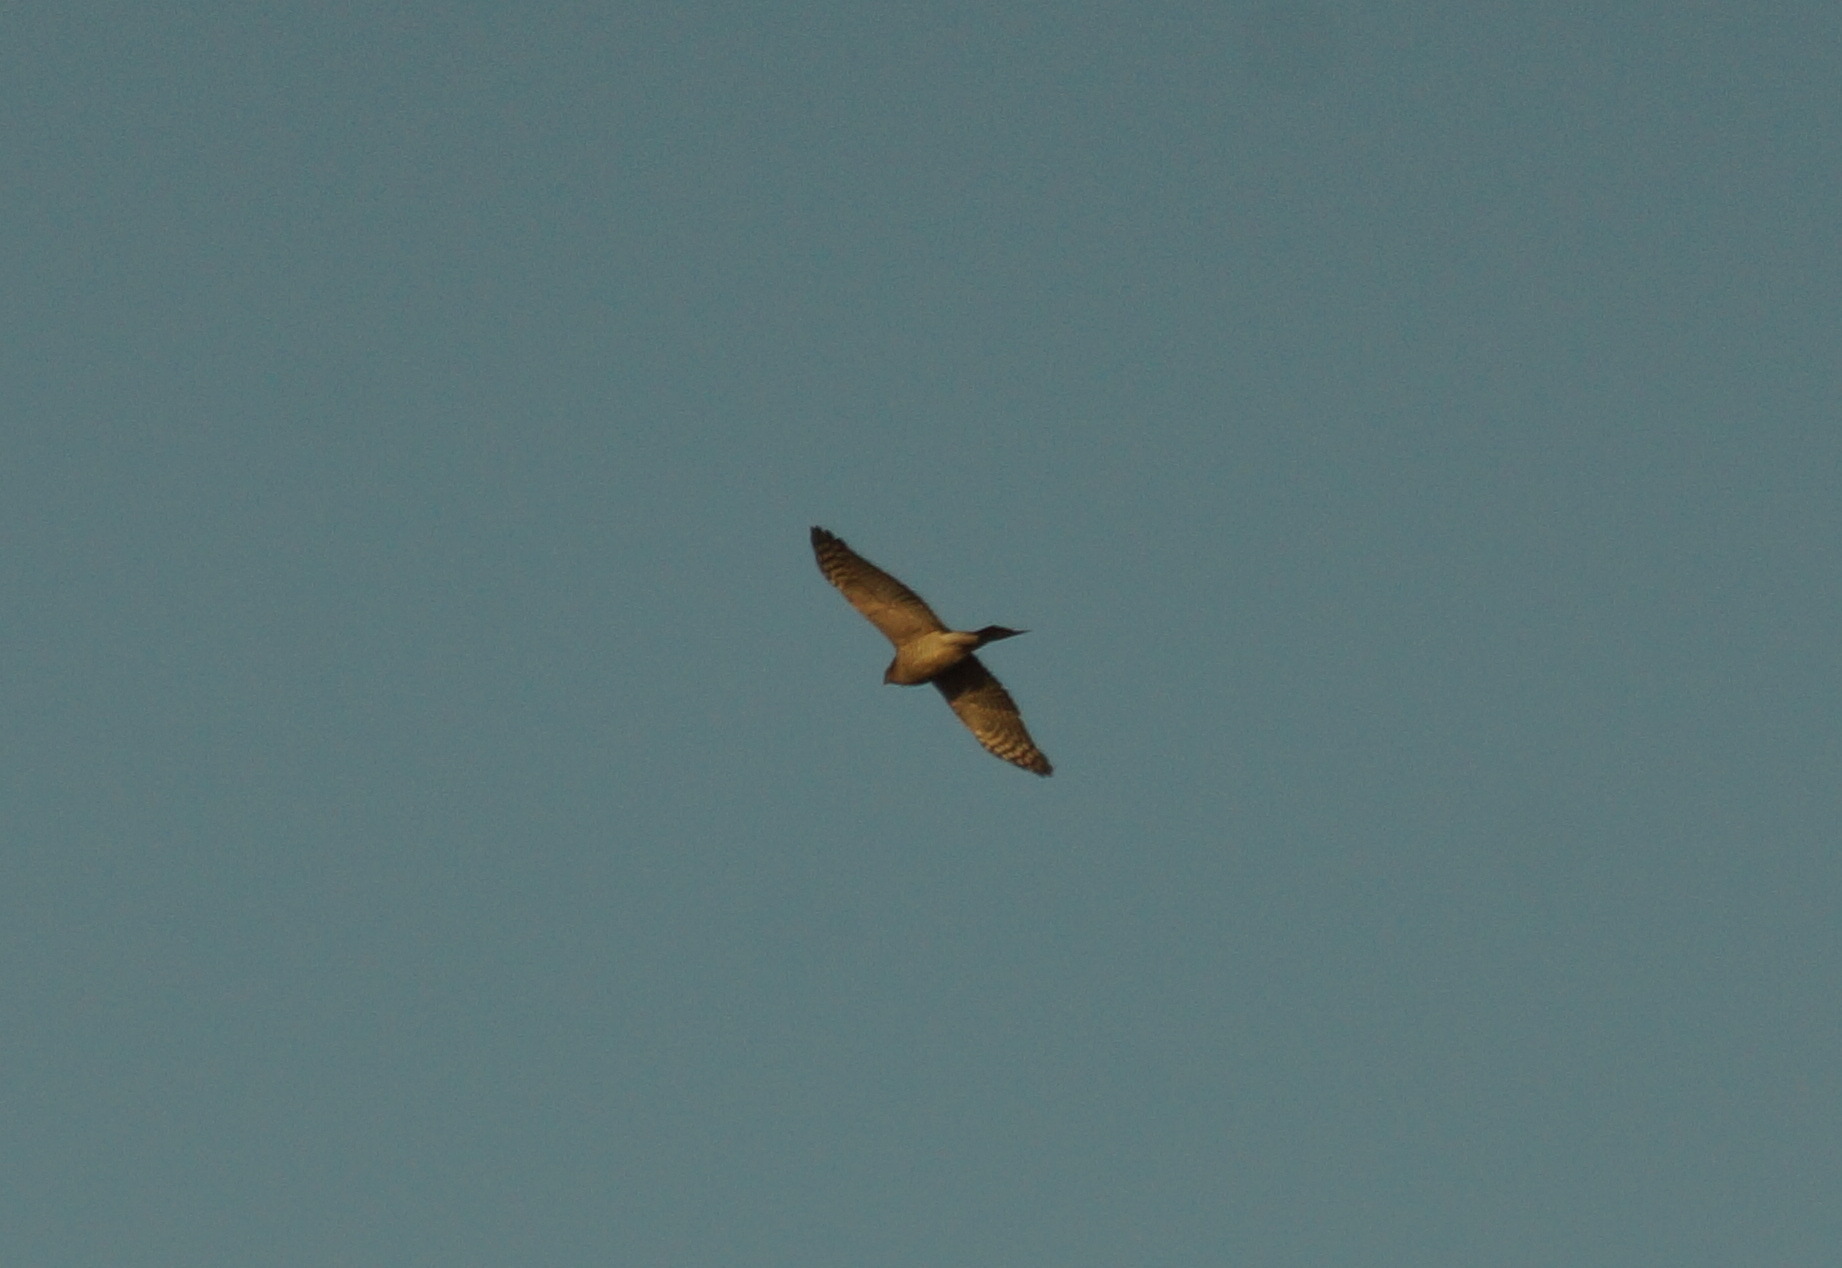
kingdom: Animalia
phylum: Chordata
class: Aves
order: Accipitriformes
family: Accipitridae
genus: Accipiter
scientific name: Accipiter nisus
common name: Eurasian sparrowhawk
